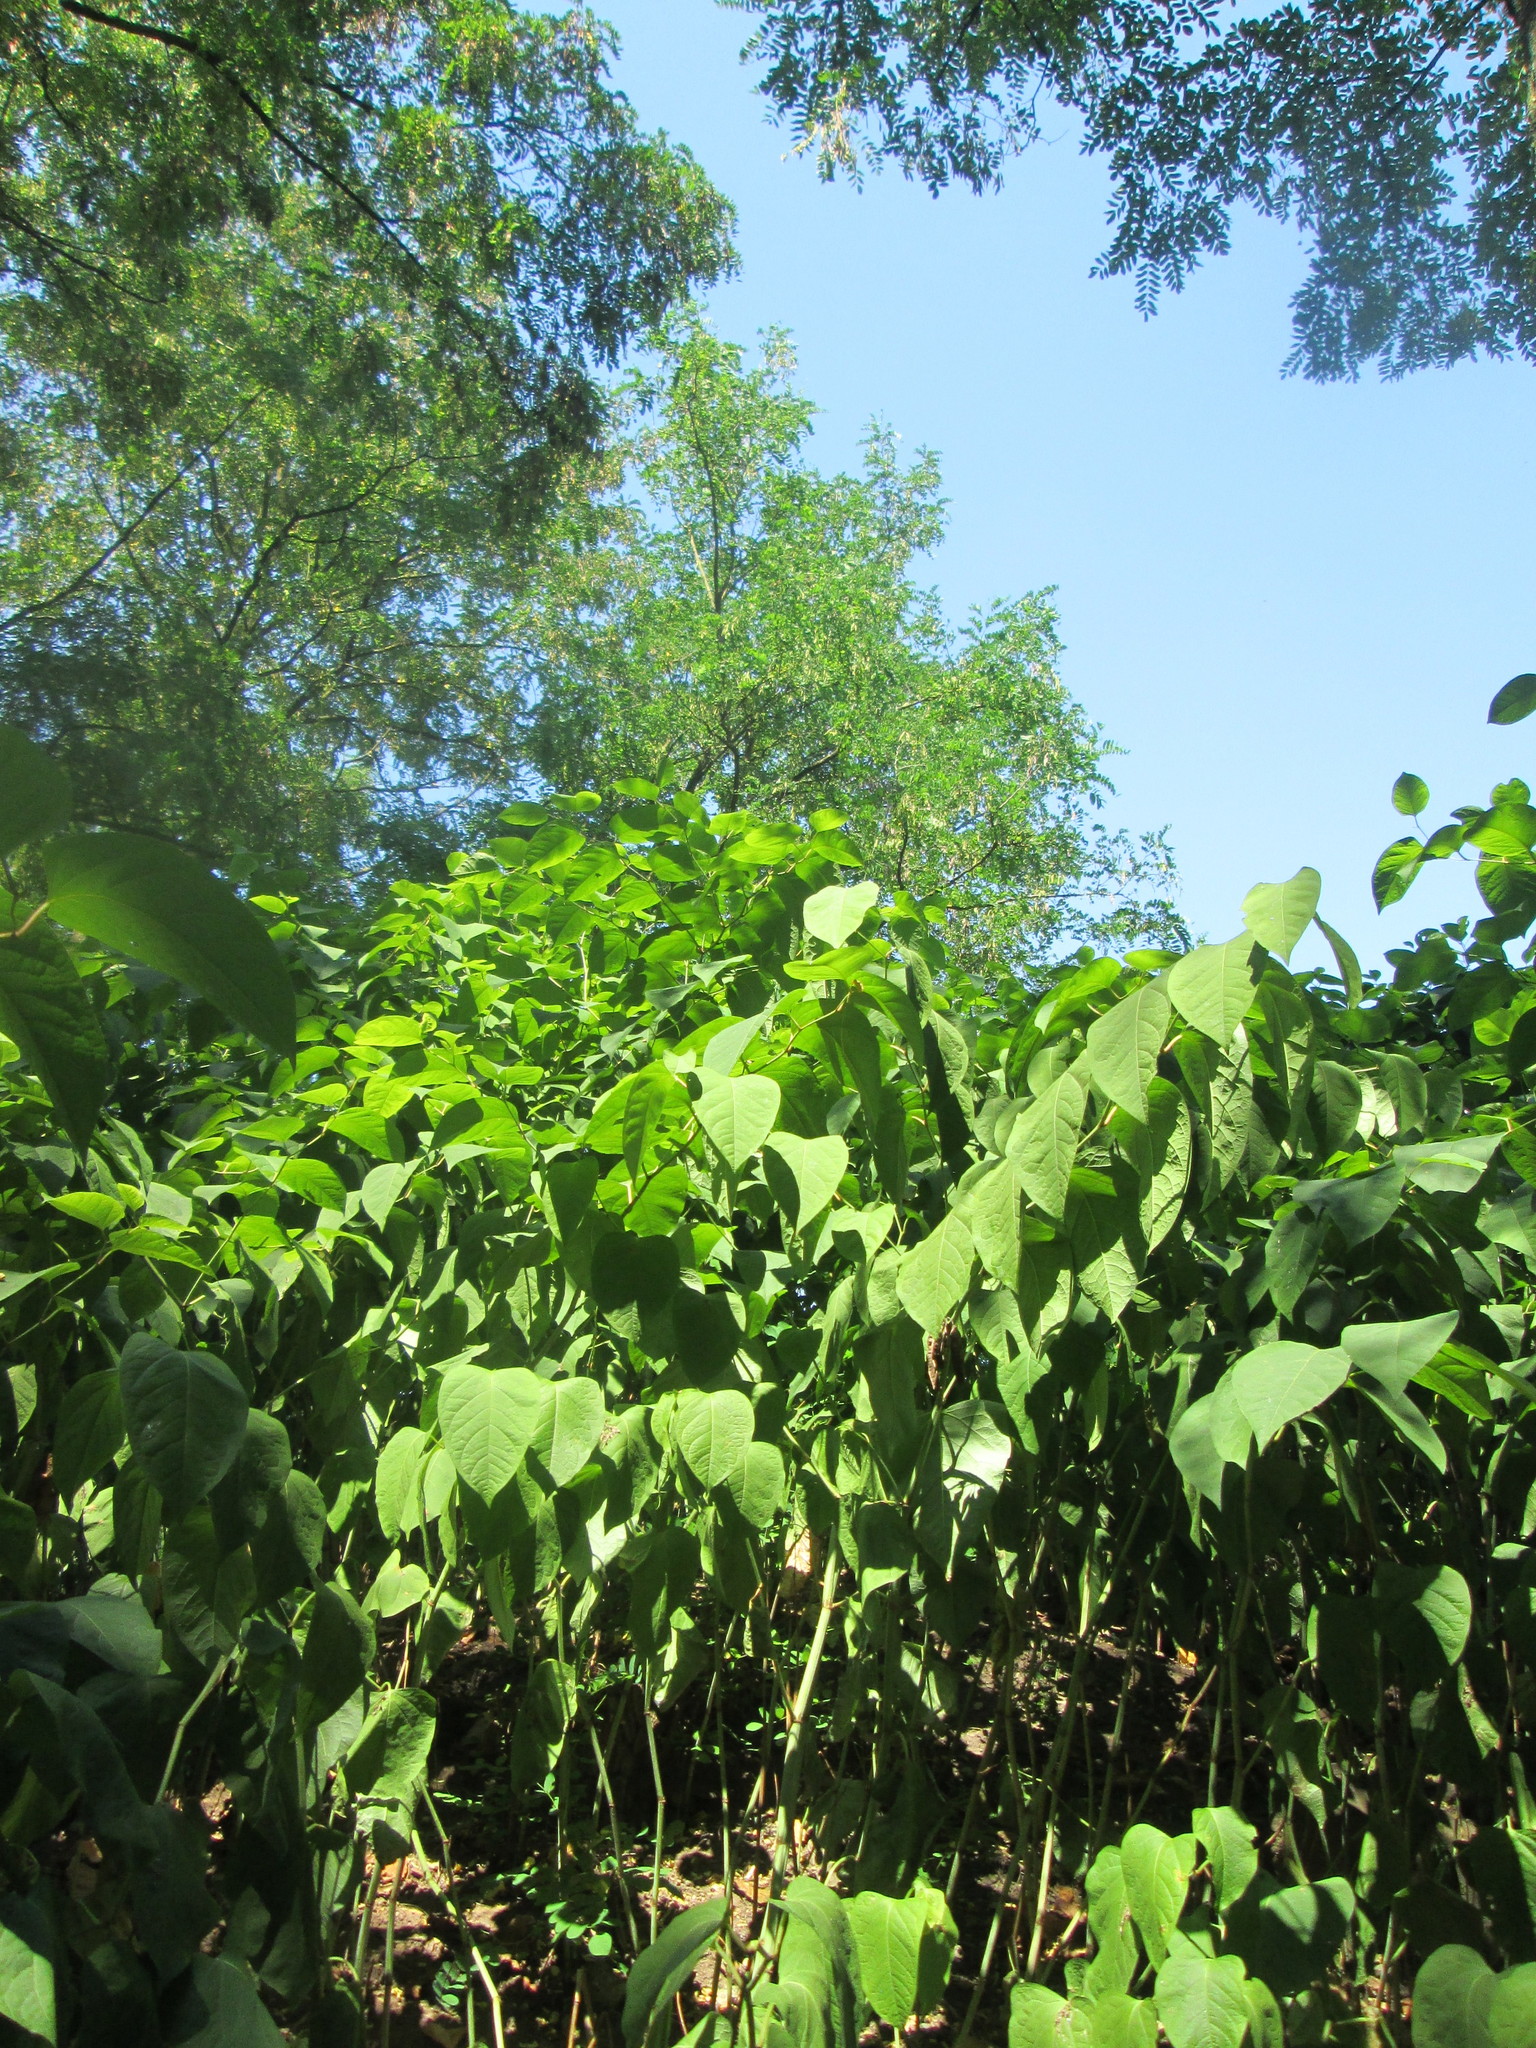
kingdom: Plantae
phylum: Tracheophyta
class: Magnoliopsida
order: Caryophyllales
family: Polygonaceae
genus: Reynoutria
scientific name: Reynoutria japonica
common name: Japanese knotweed
